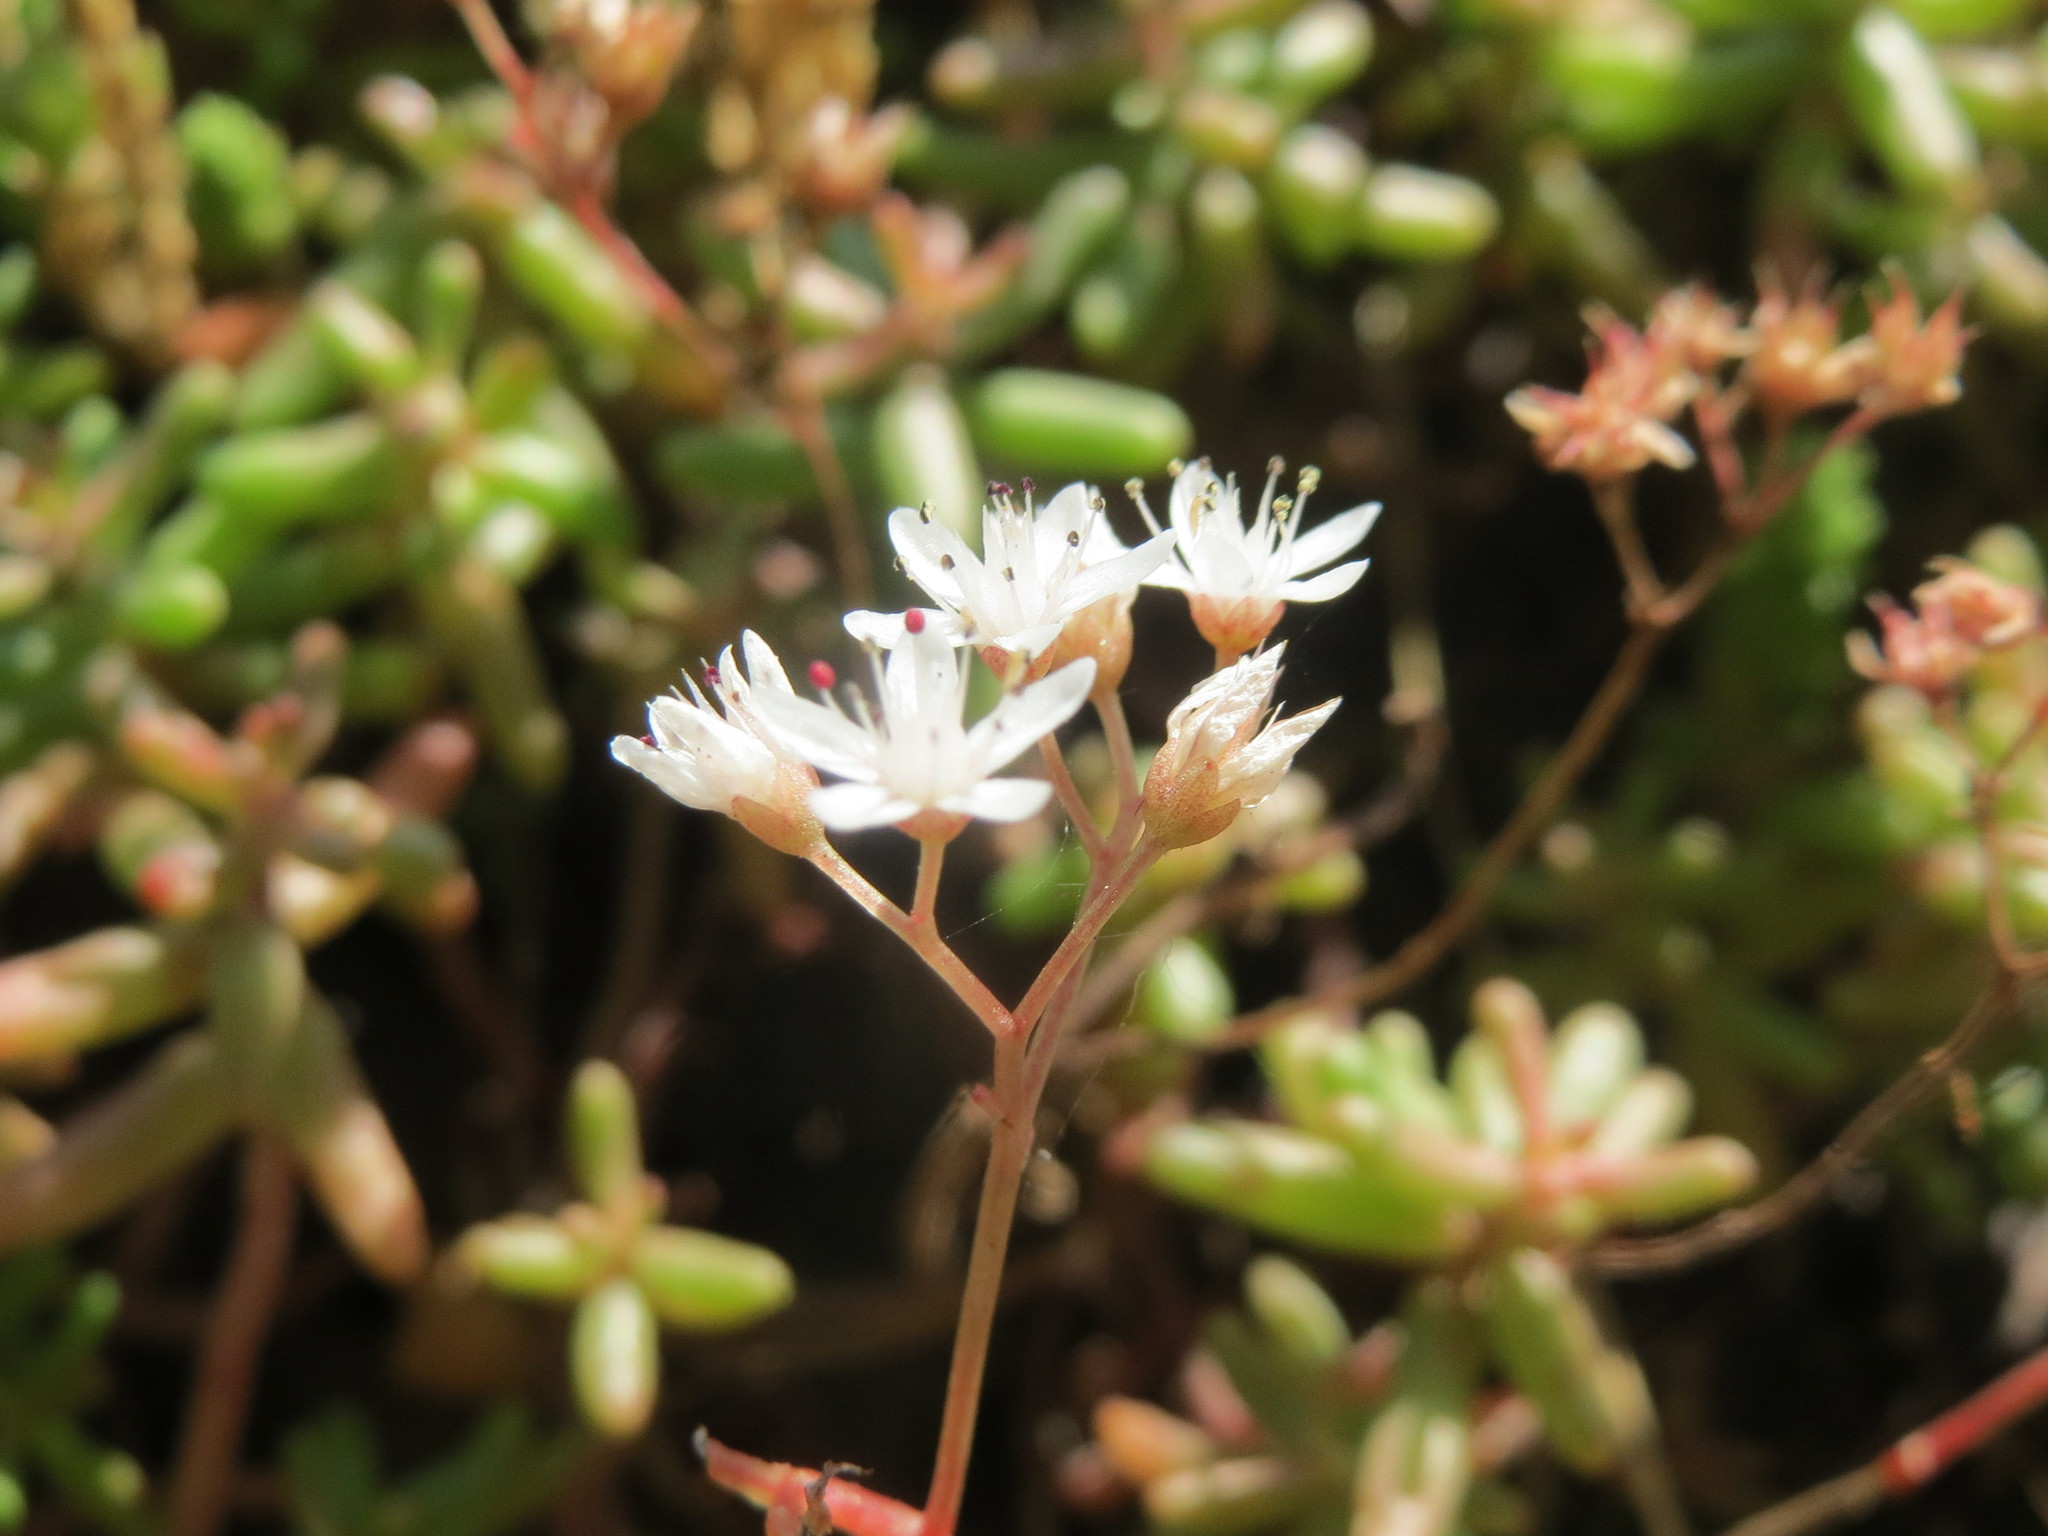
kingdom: Plantae
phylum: Tracheophyta
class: Magnoliopsida
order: Saxifragales
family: Crassulaceae
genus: Sedum
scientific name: Sedum album
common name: White stonecrop
